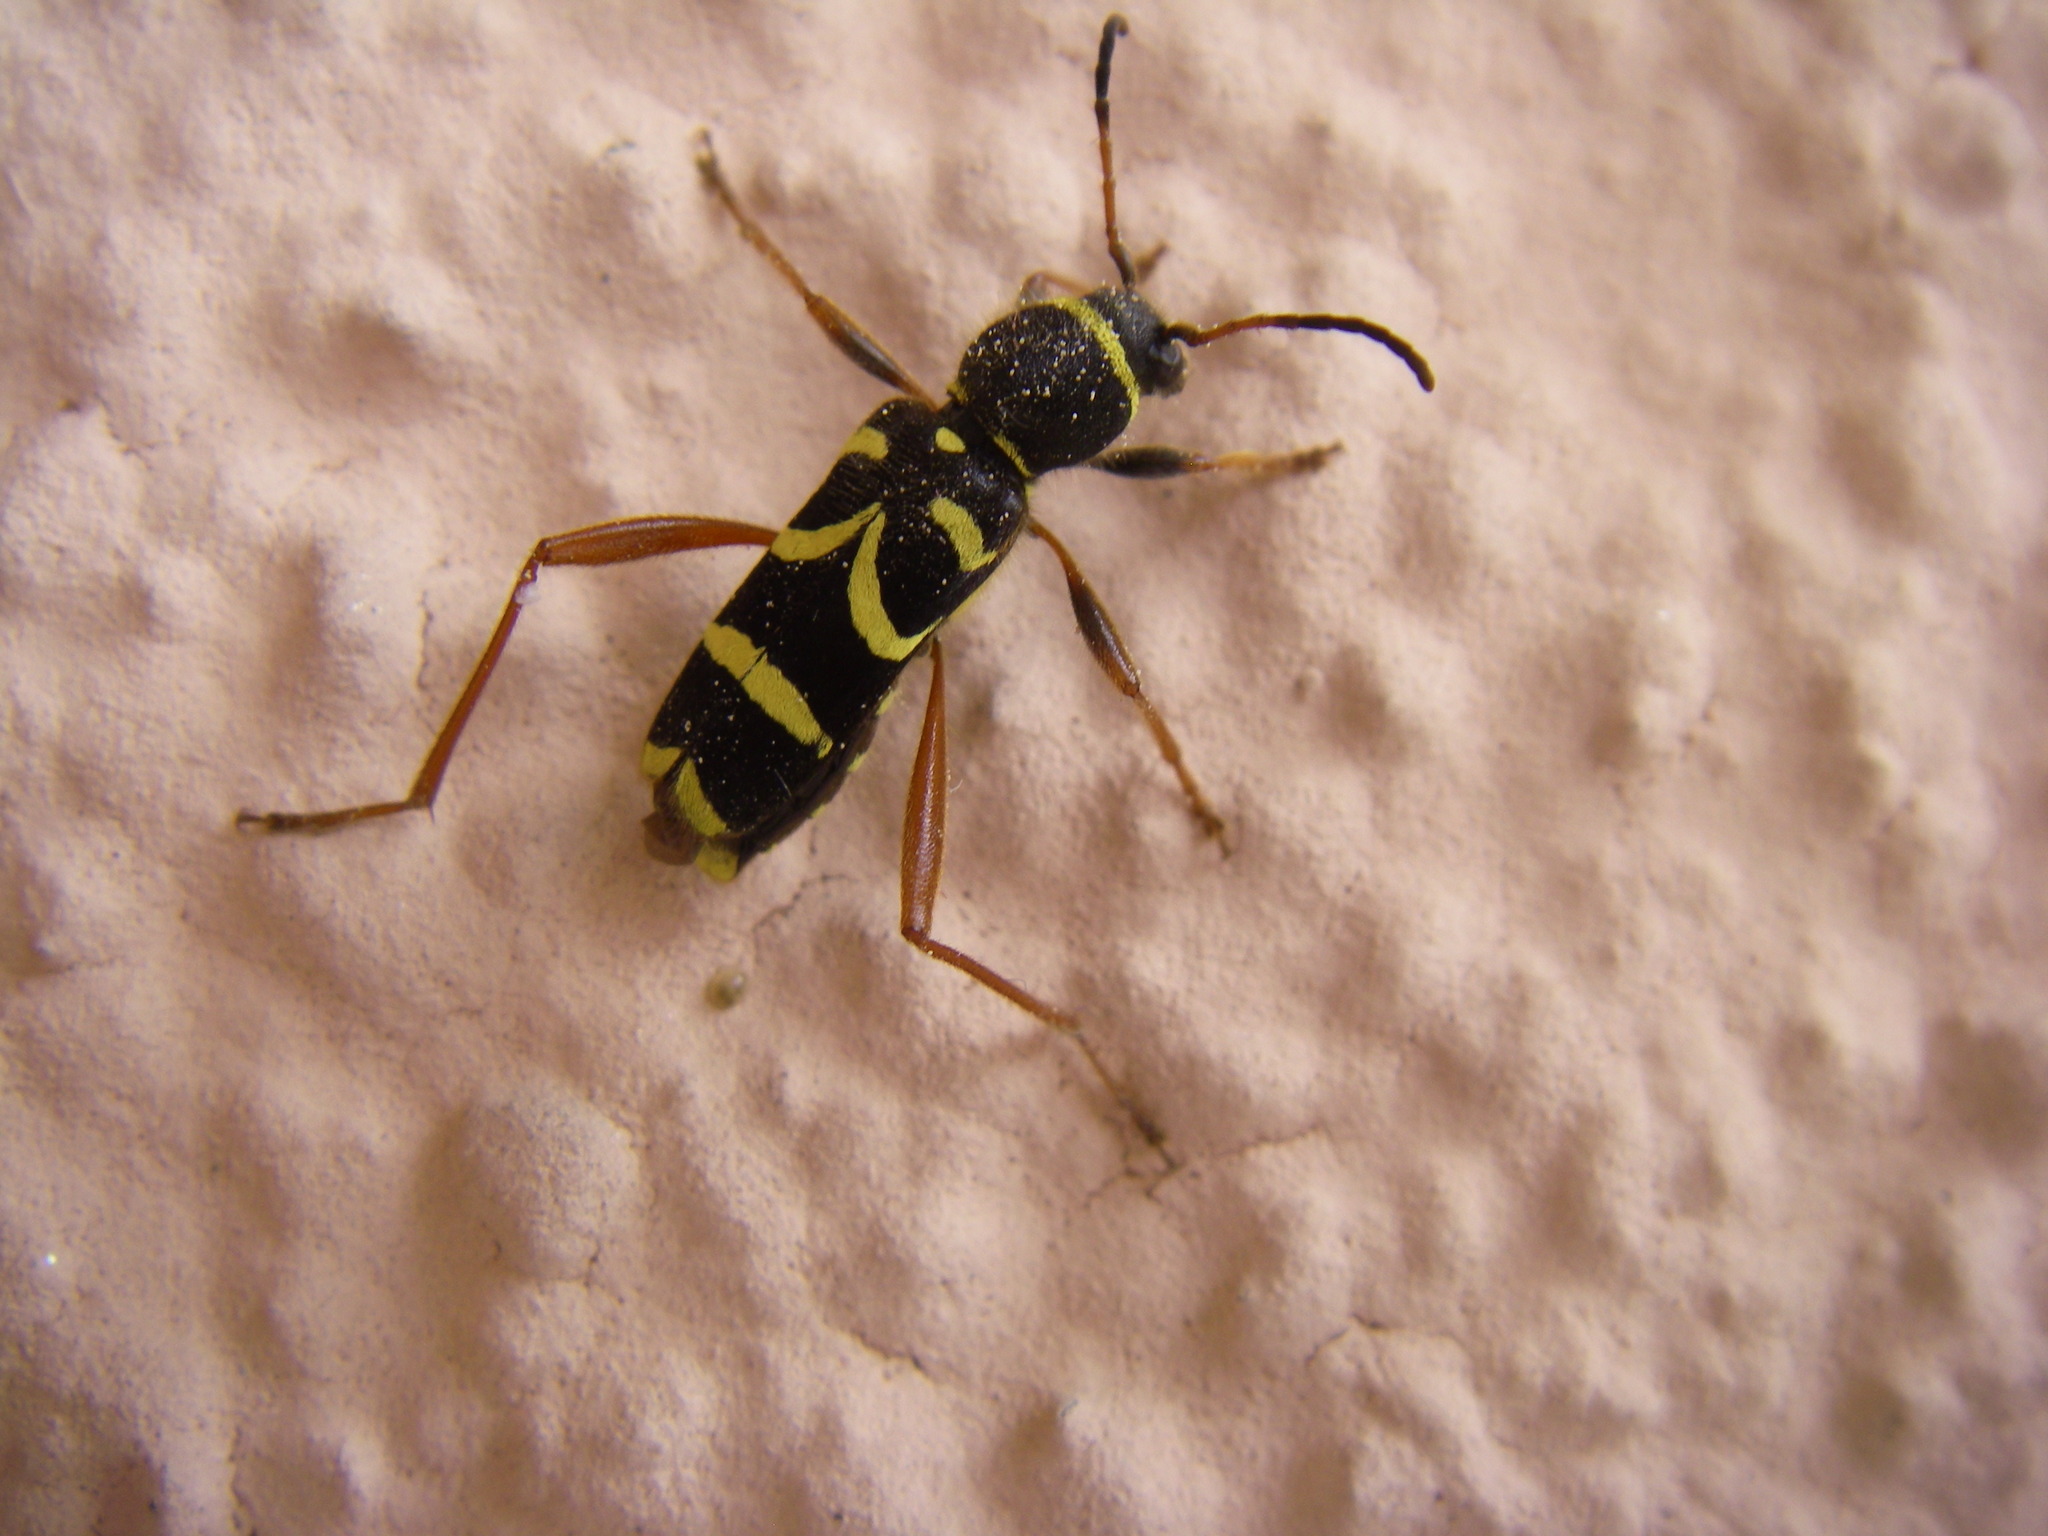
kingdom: Animalia
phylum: Arthropoda
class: Insecta
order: Coleoptera
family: Cerambycidae
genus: Clytus
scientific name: Clytus arietis
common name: Wasp beetle
